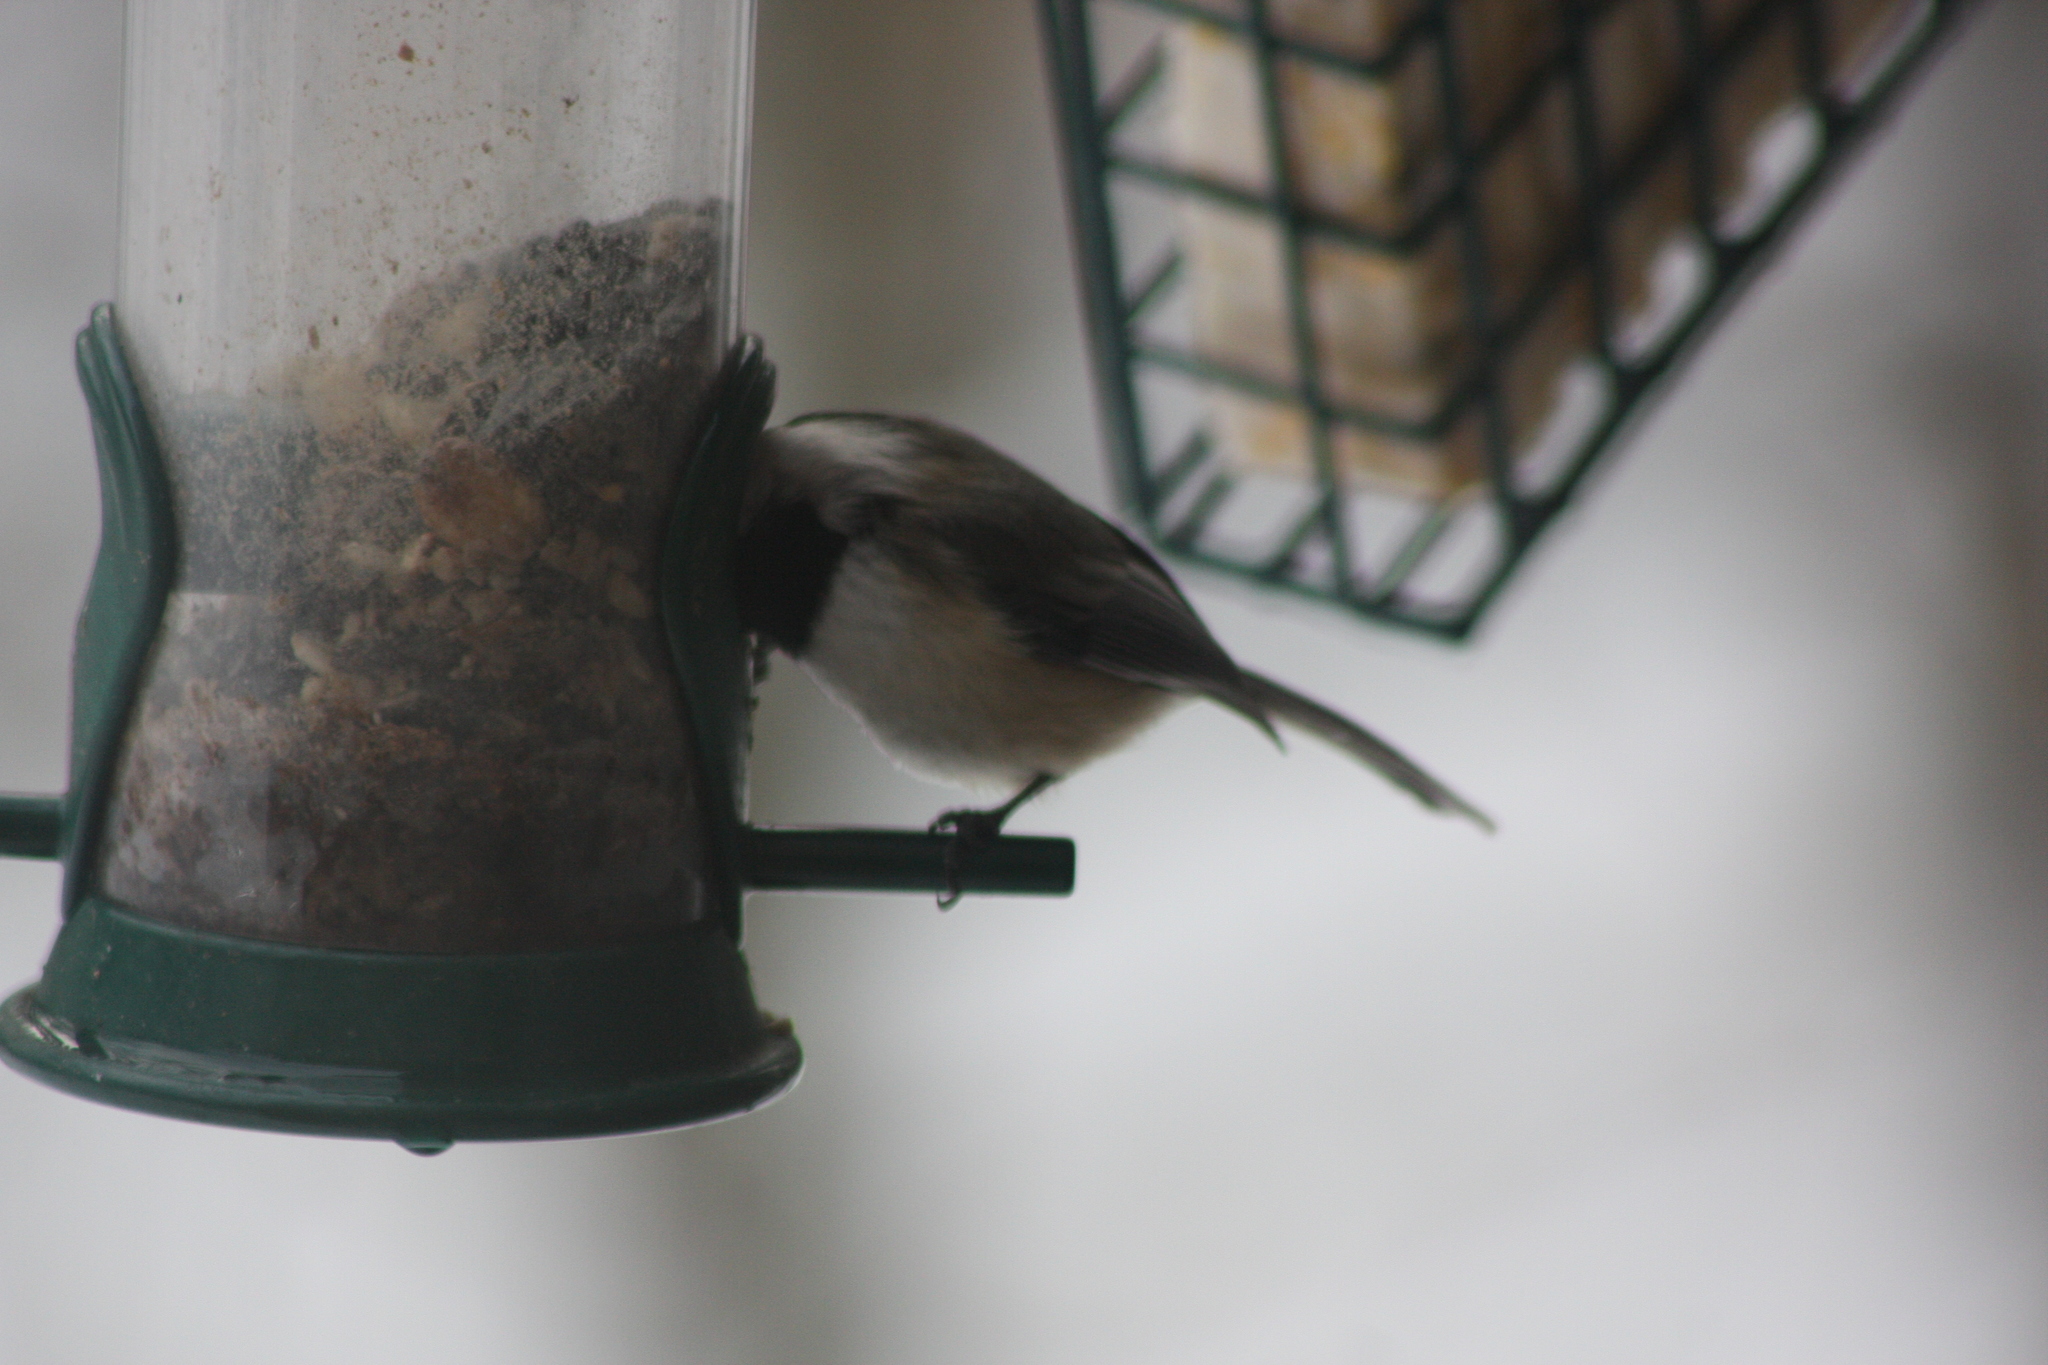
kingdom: Animalia
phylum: Chordata
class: Aves
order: Passeriformes
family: Paridae
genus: Poecile
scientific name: Poecile atricapillus
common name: Black-capped chickadee
